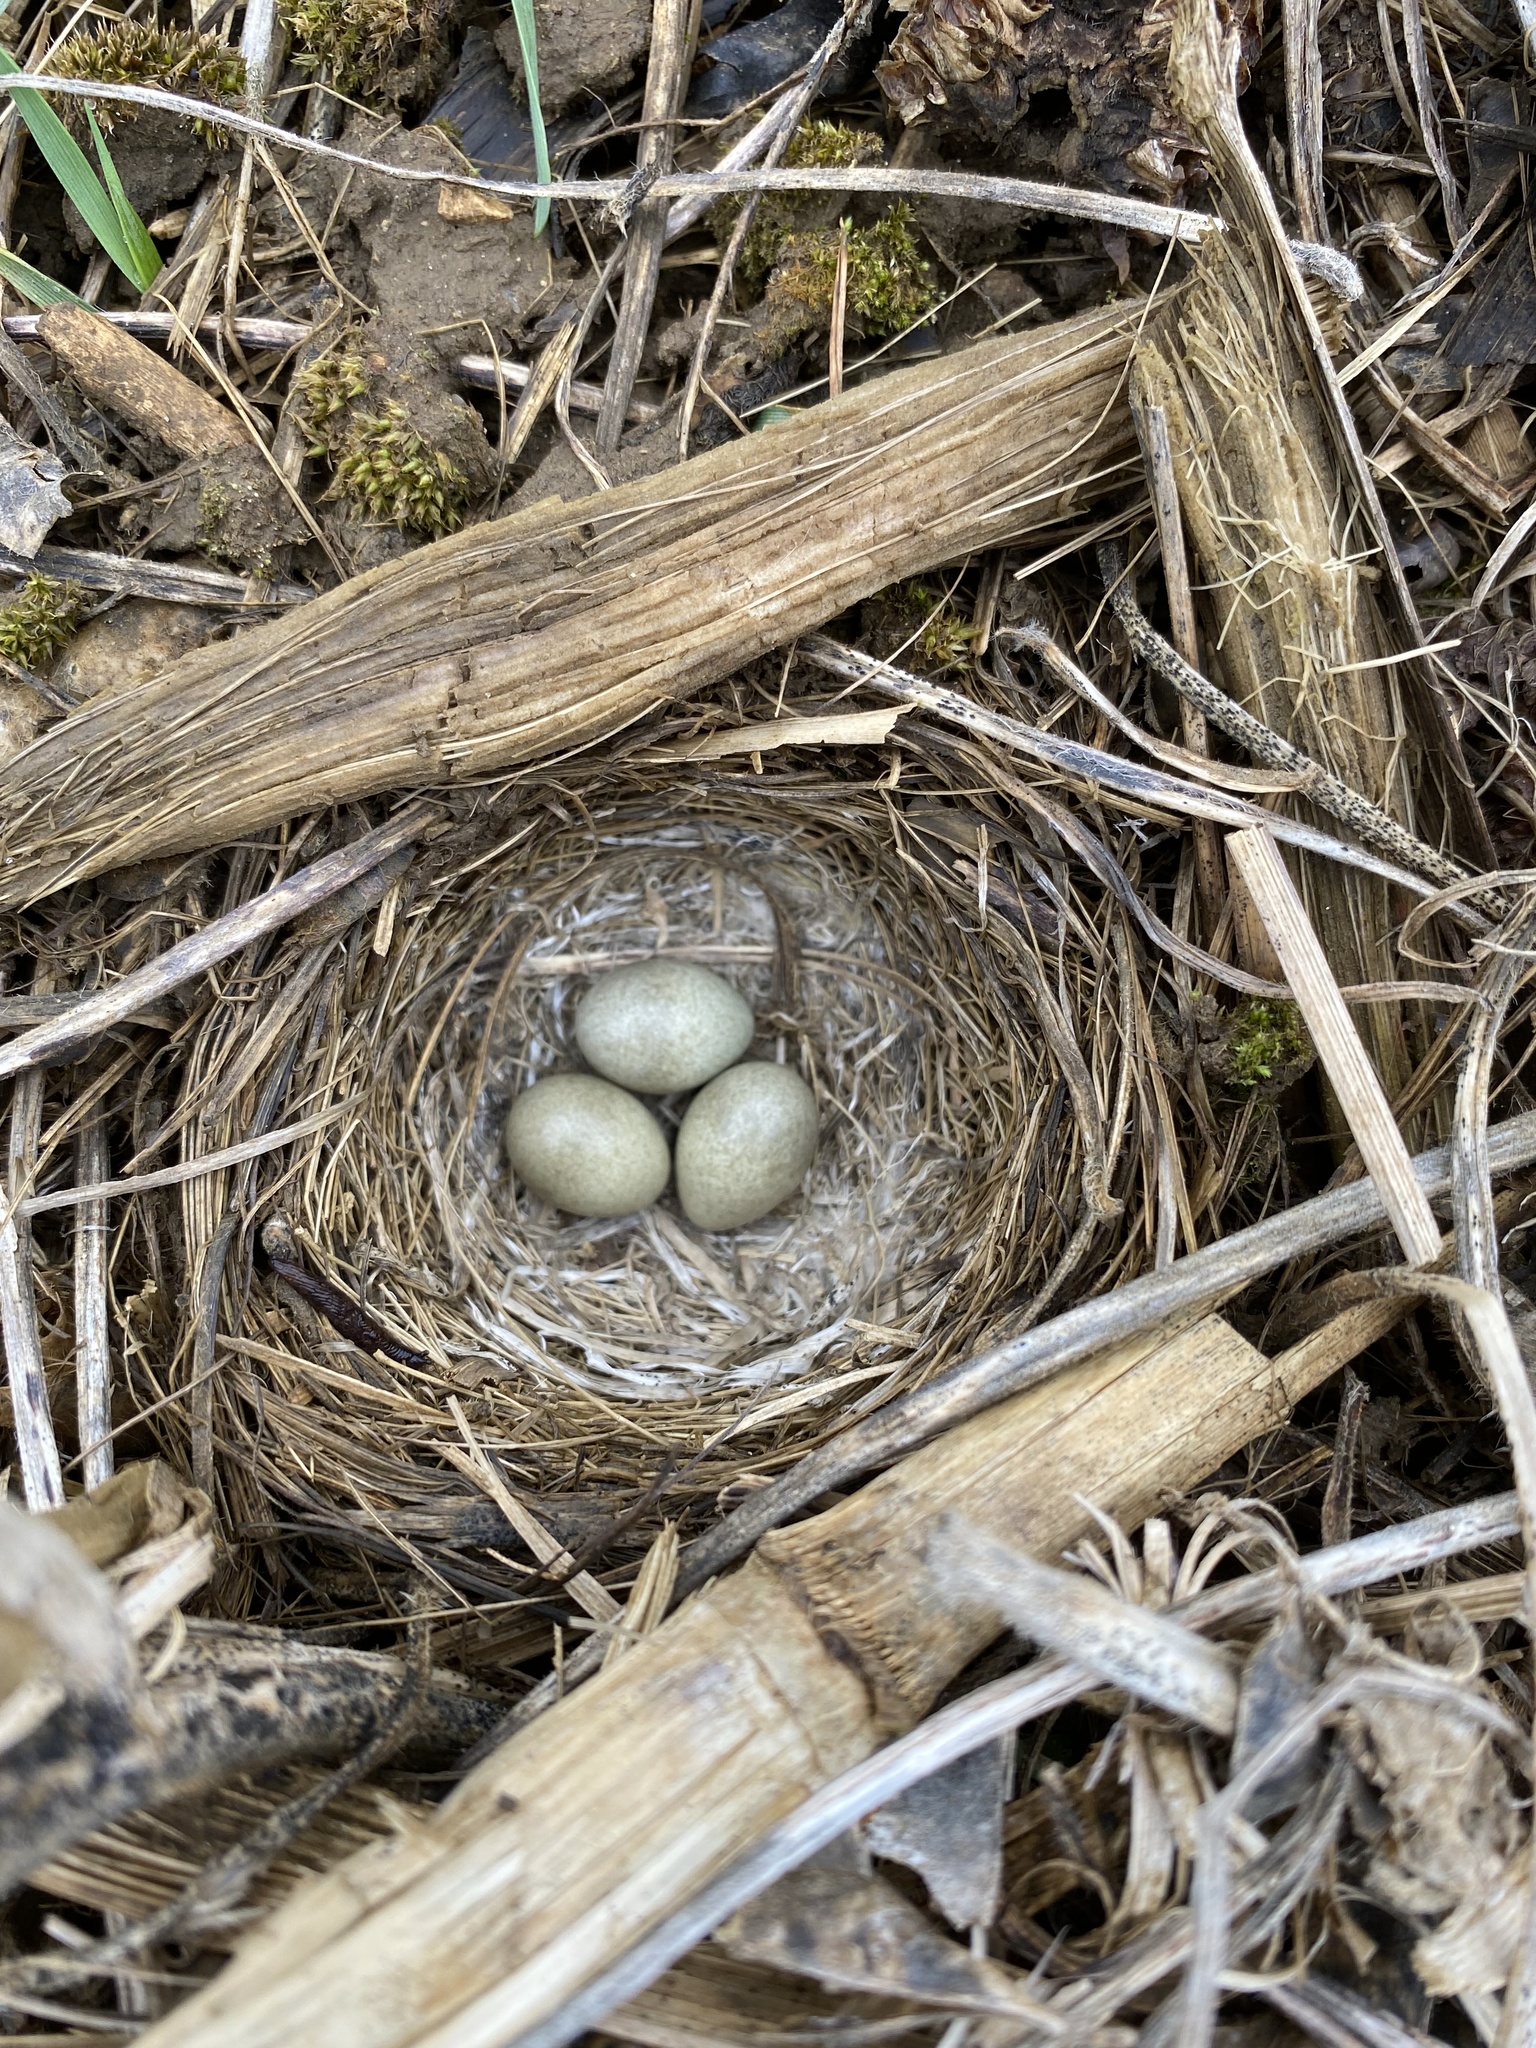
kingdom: Animalia
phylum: Chordata
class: Aves
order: Passeriformes
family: Alaudidae
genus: Eremophila
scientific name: Eremophila alpestris
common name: Horned lark
